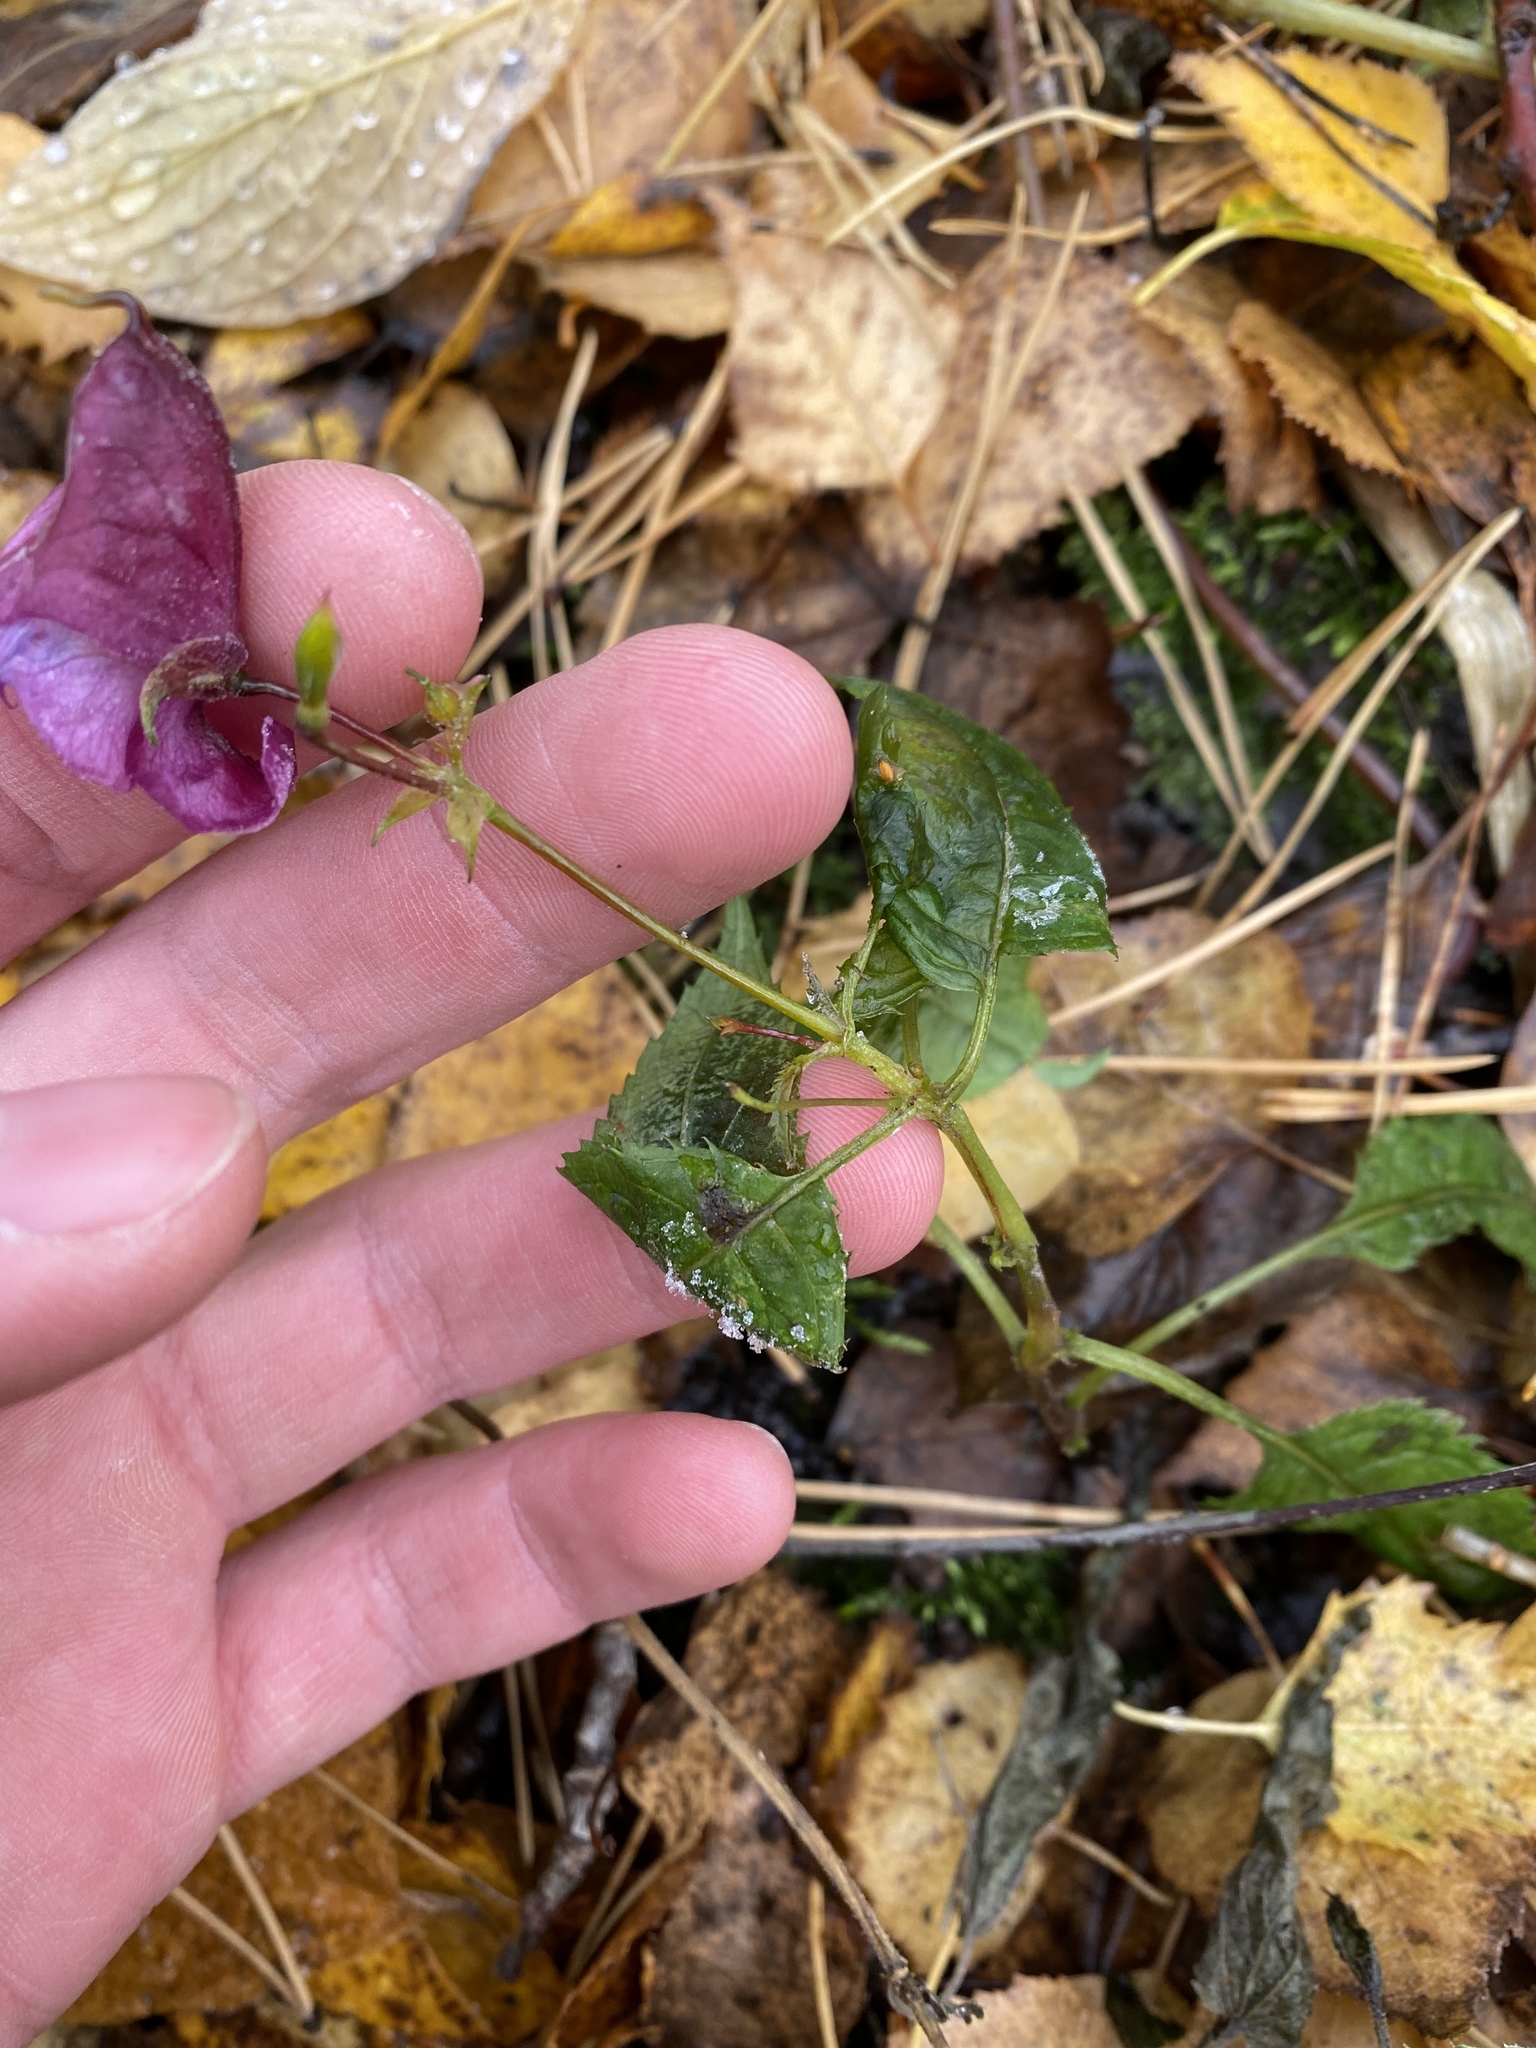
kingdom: Plantae
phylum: Tracheophyta
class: Magnoliopsida
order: Ericales
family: Balsaminaceae
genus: Impatiens
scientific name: Impatiens glandulifera
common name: Himalayan balsam
